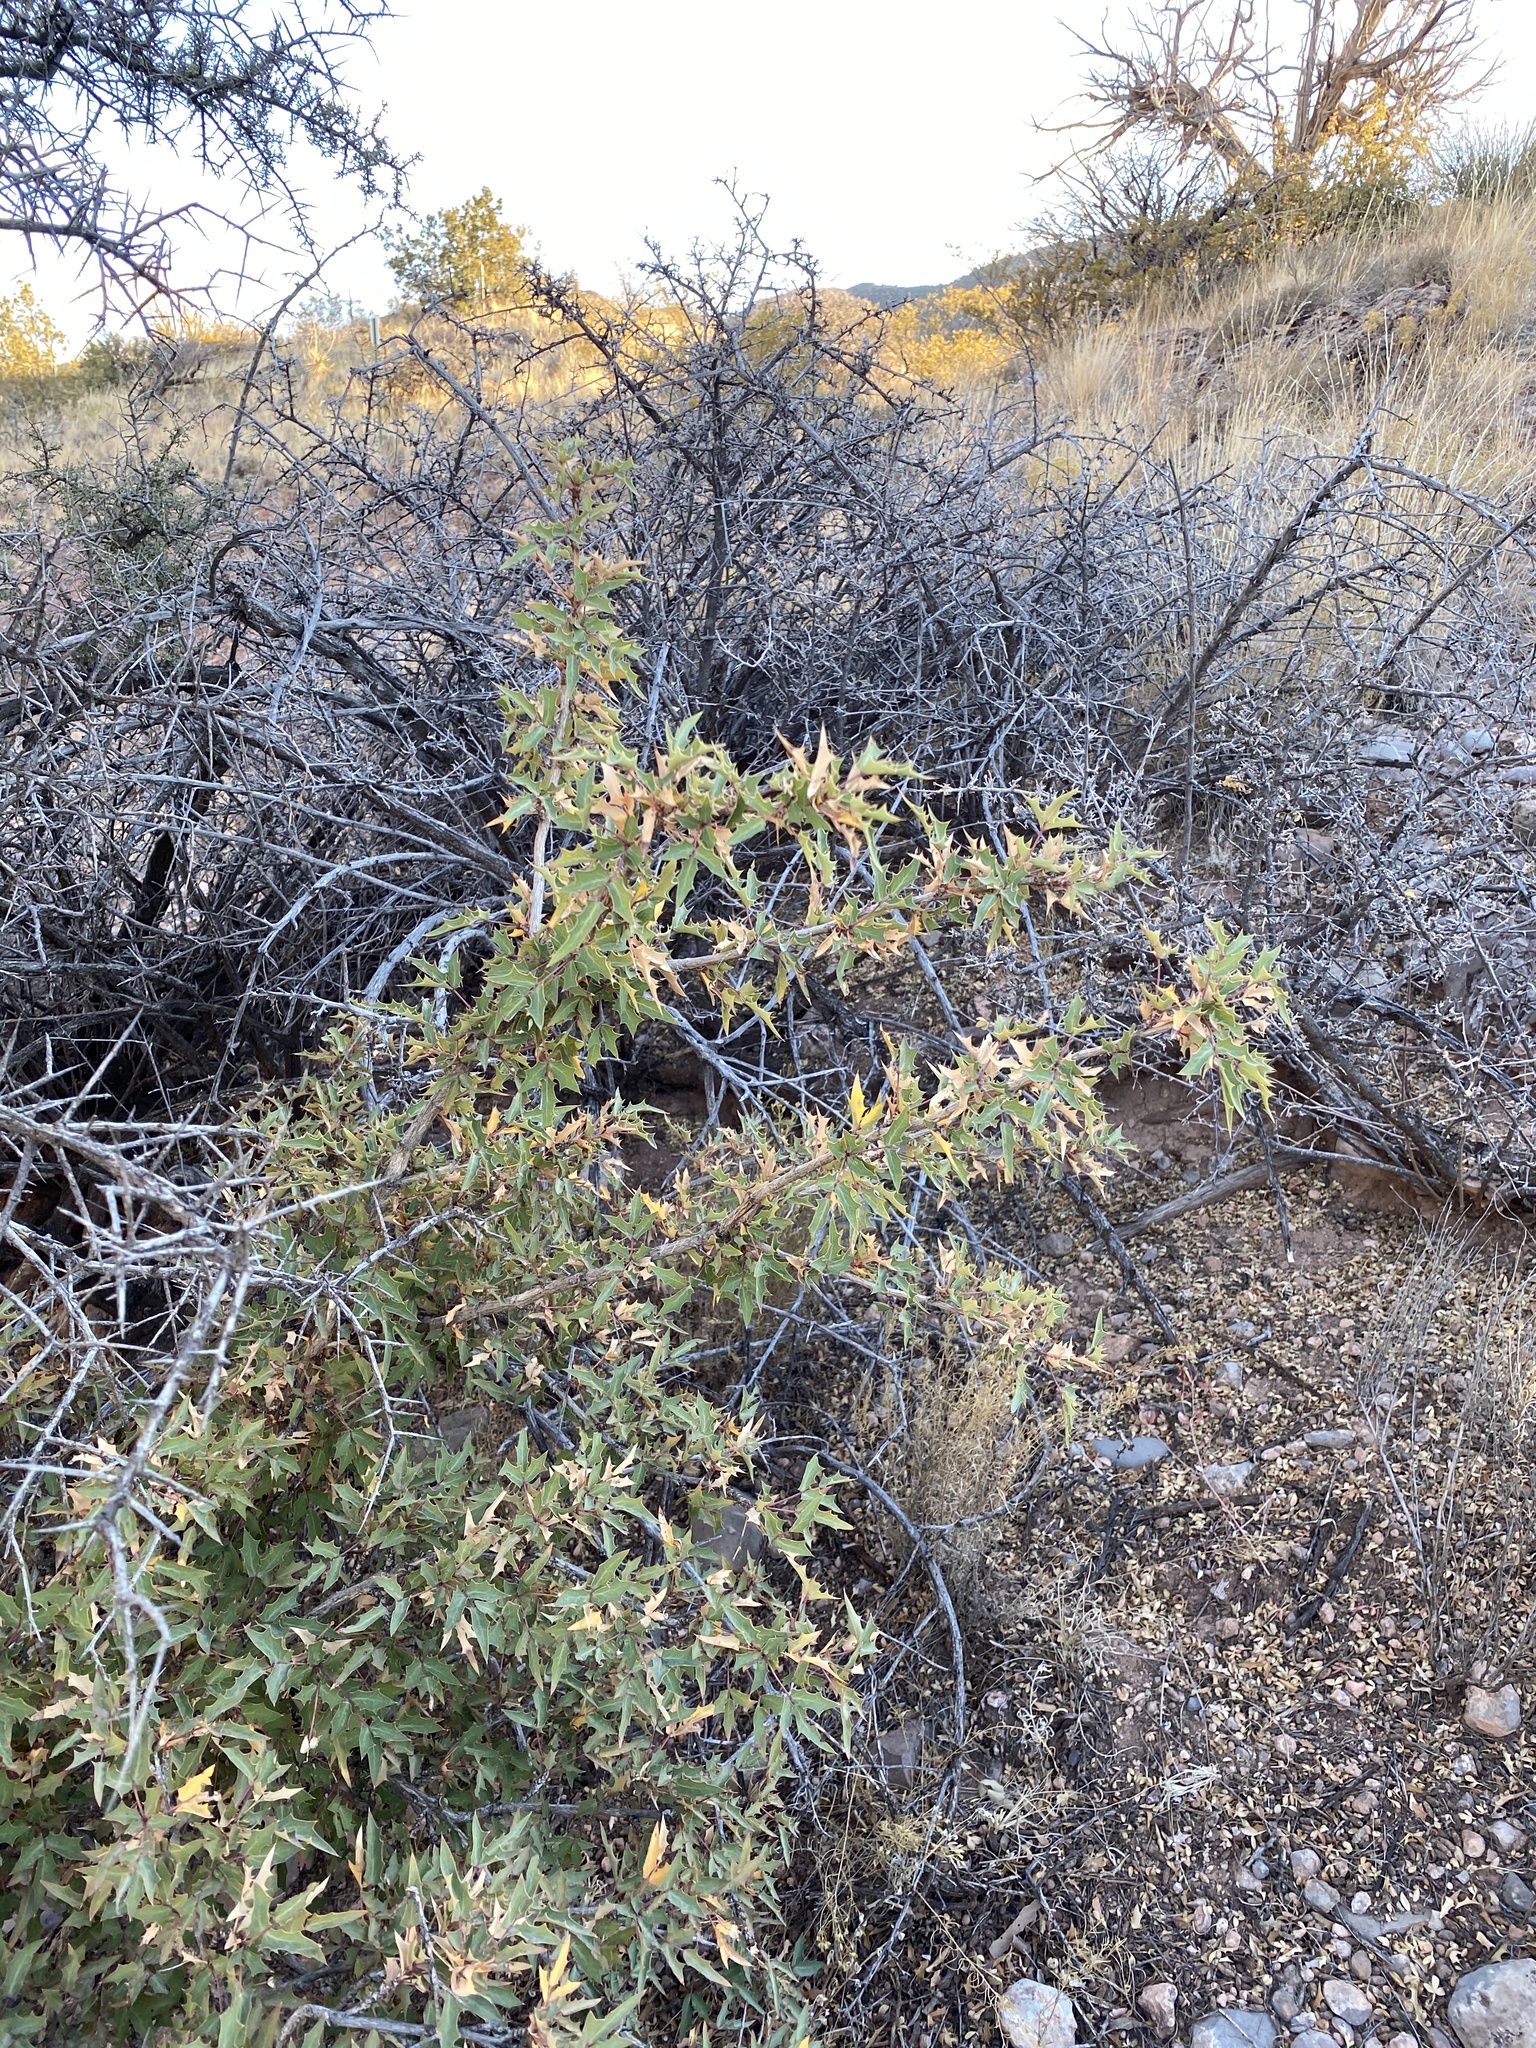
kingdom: Plantae
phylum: Tracheophyta
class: Magnoliopsida
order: Ranunculales
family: Berberidaceae
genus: Alloberberis
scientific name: Alloberberis haematocarpa
